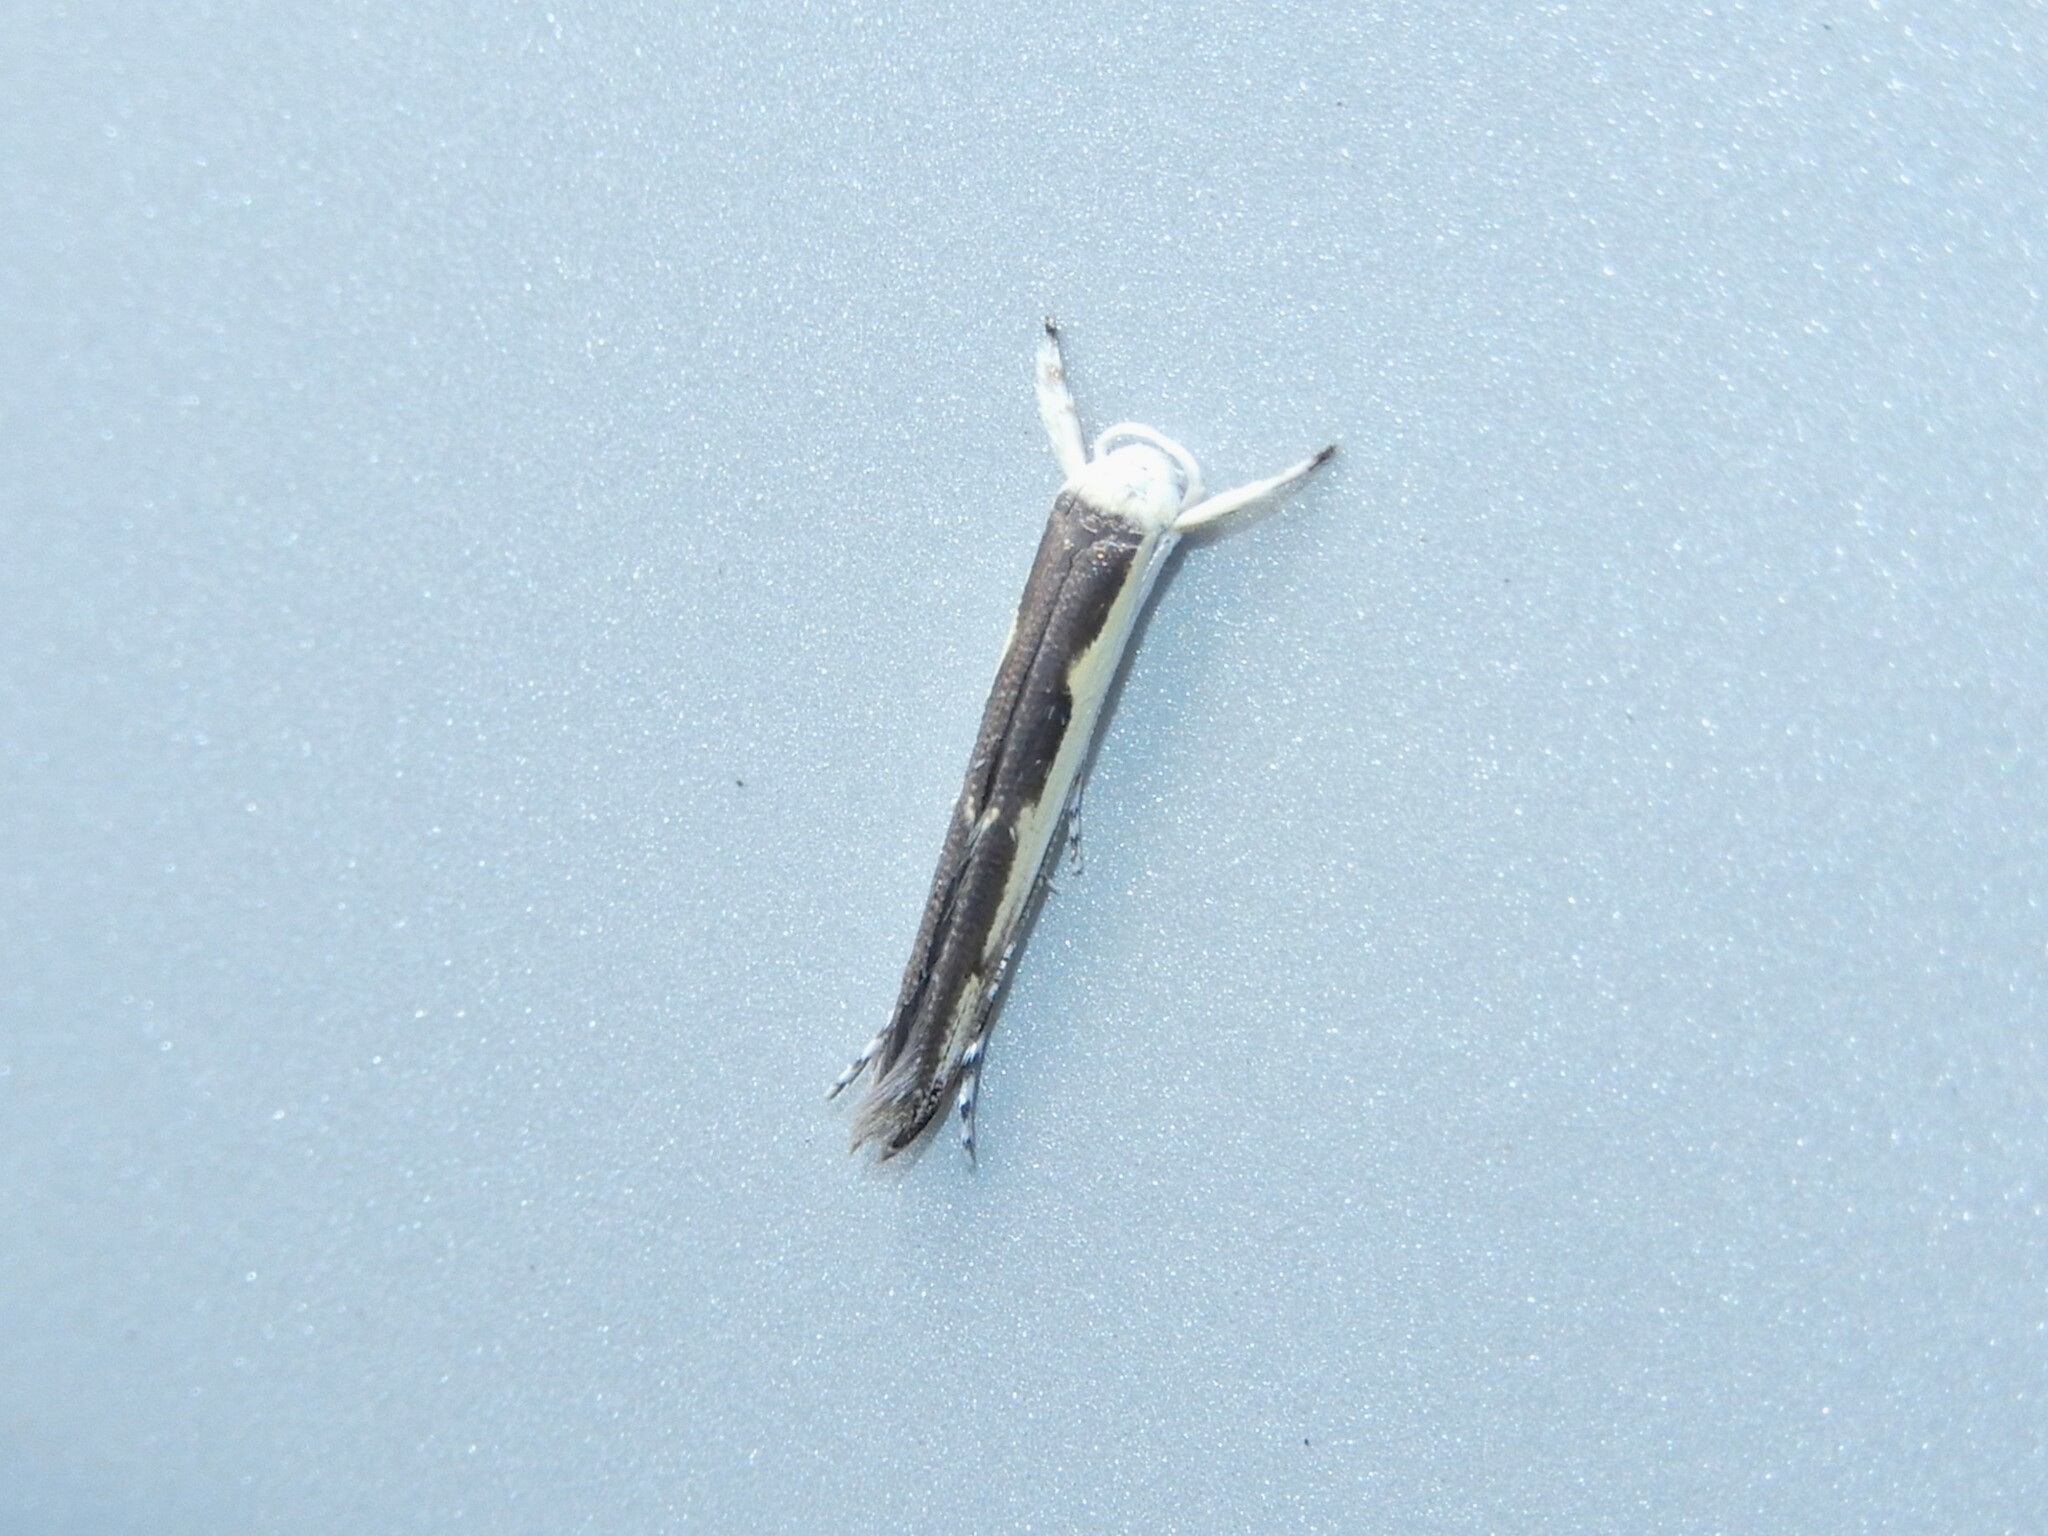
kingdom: Animalia
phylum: Arthropoda
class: Insecta
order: Lepidoptera
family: Roeslerstammiidae
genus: Vanicela
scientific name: Vanicela disjunctella
